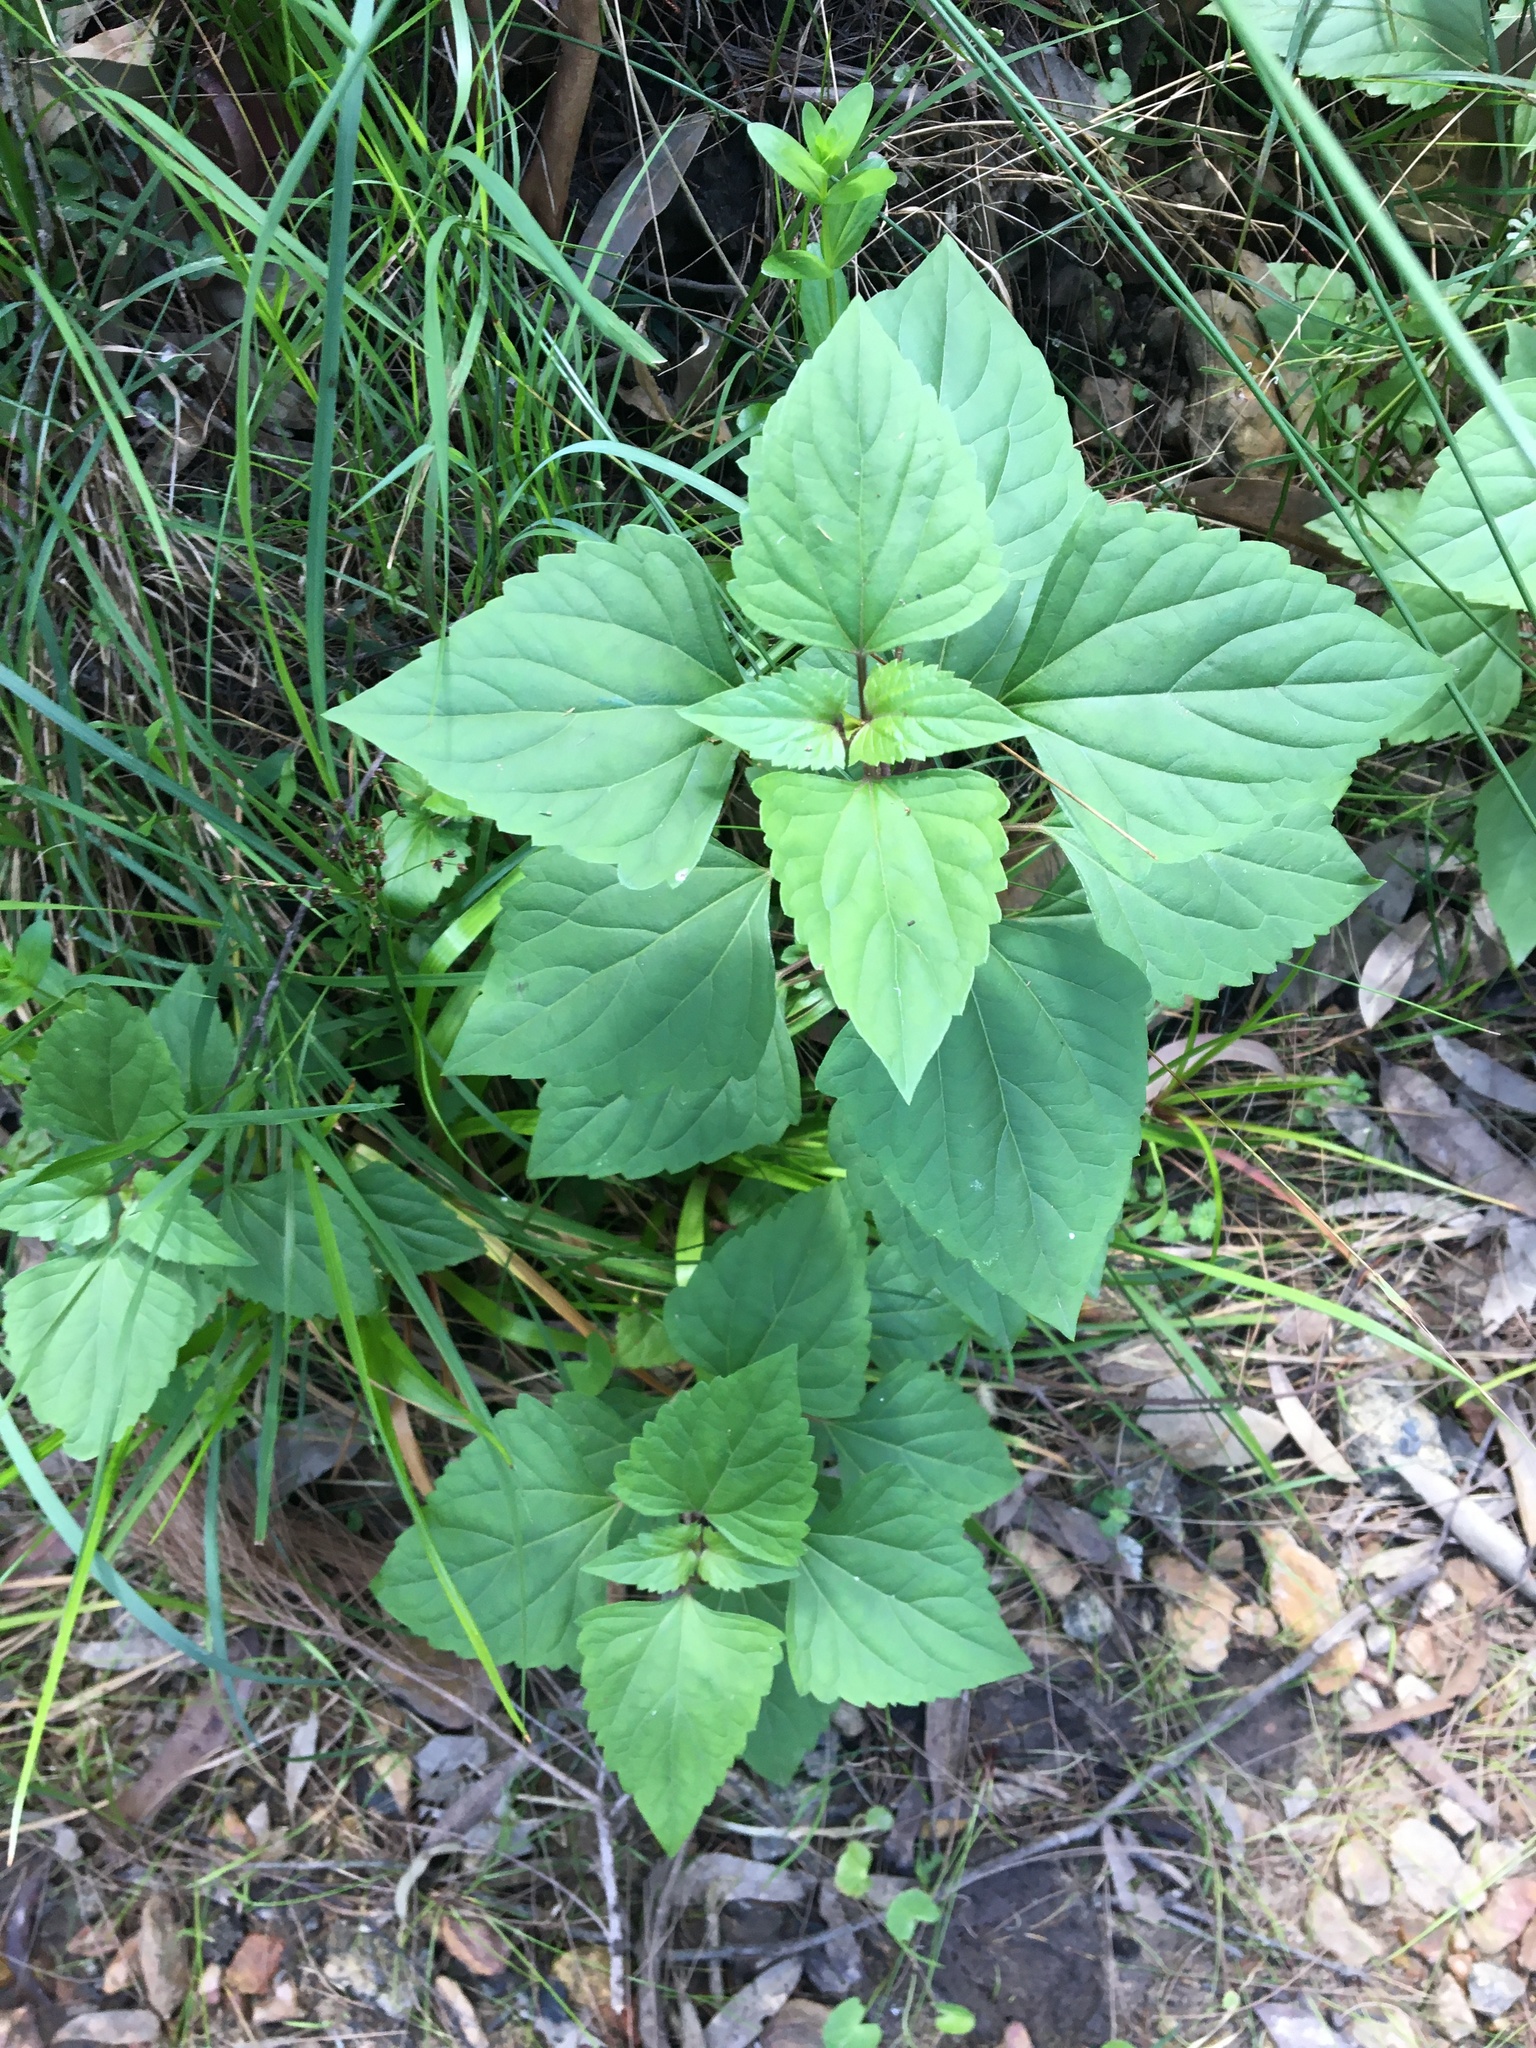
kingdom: Plantae
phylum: Tracheophyta
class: Magnoliopsida
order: Asterales
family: Asteraceae
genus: Ageratina
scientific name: Ageratina adenophora
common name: Sticky snakeroot
